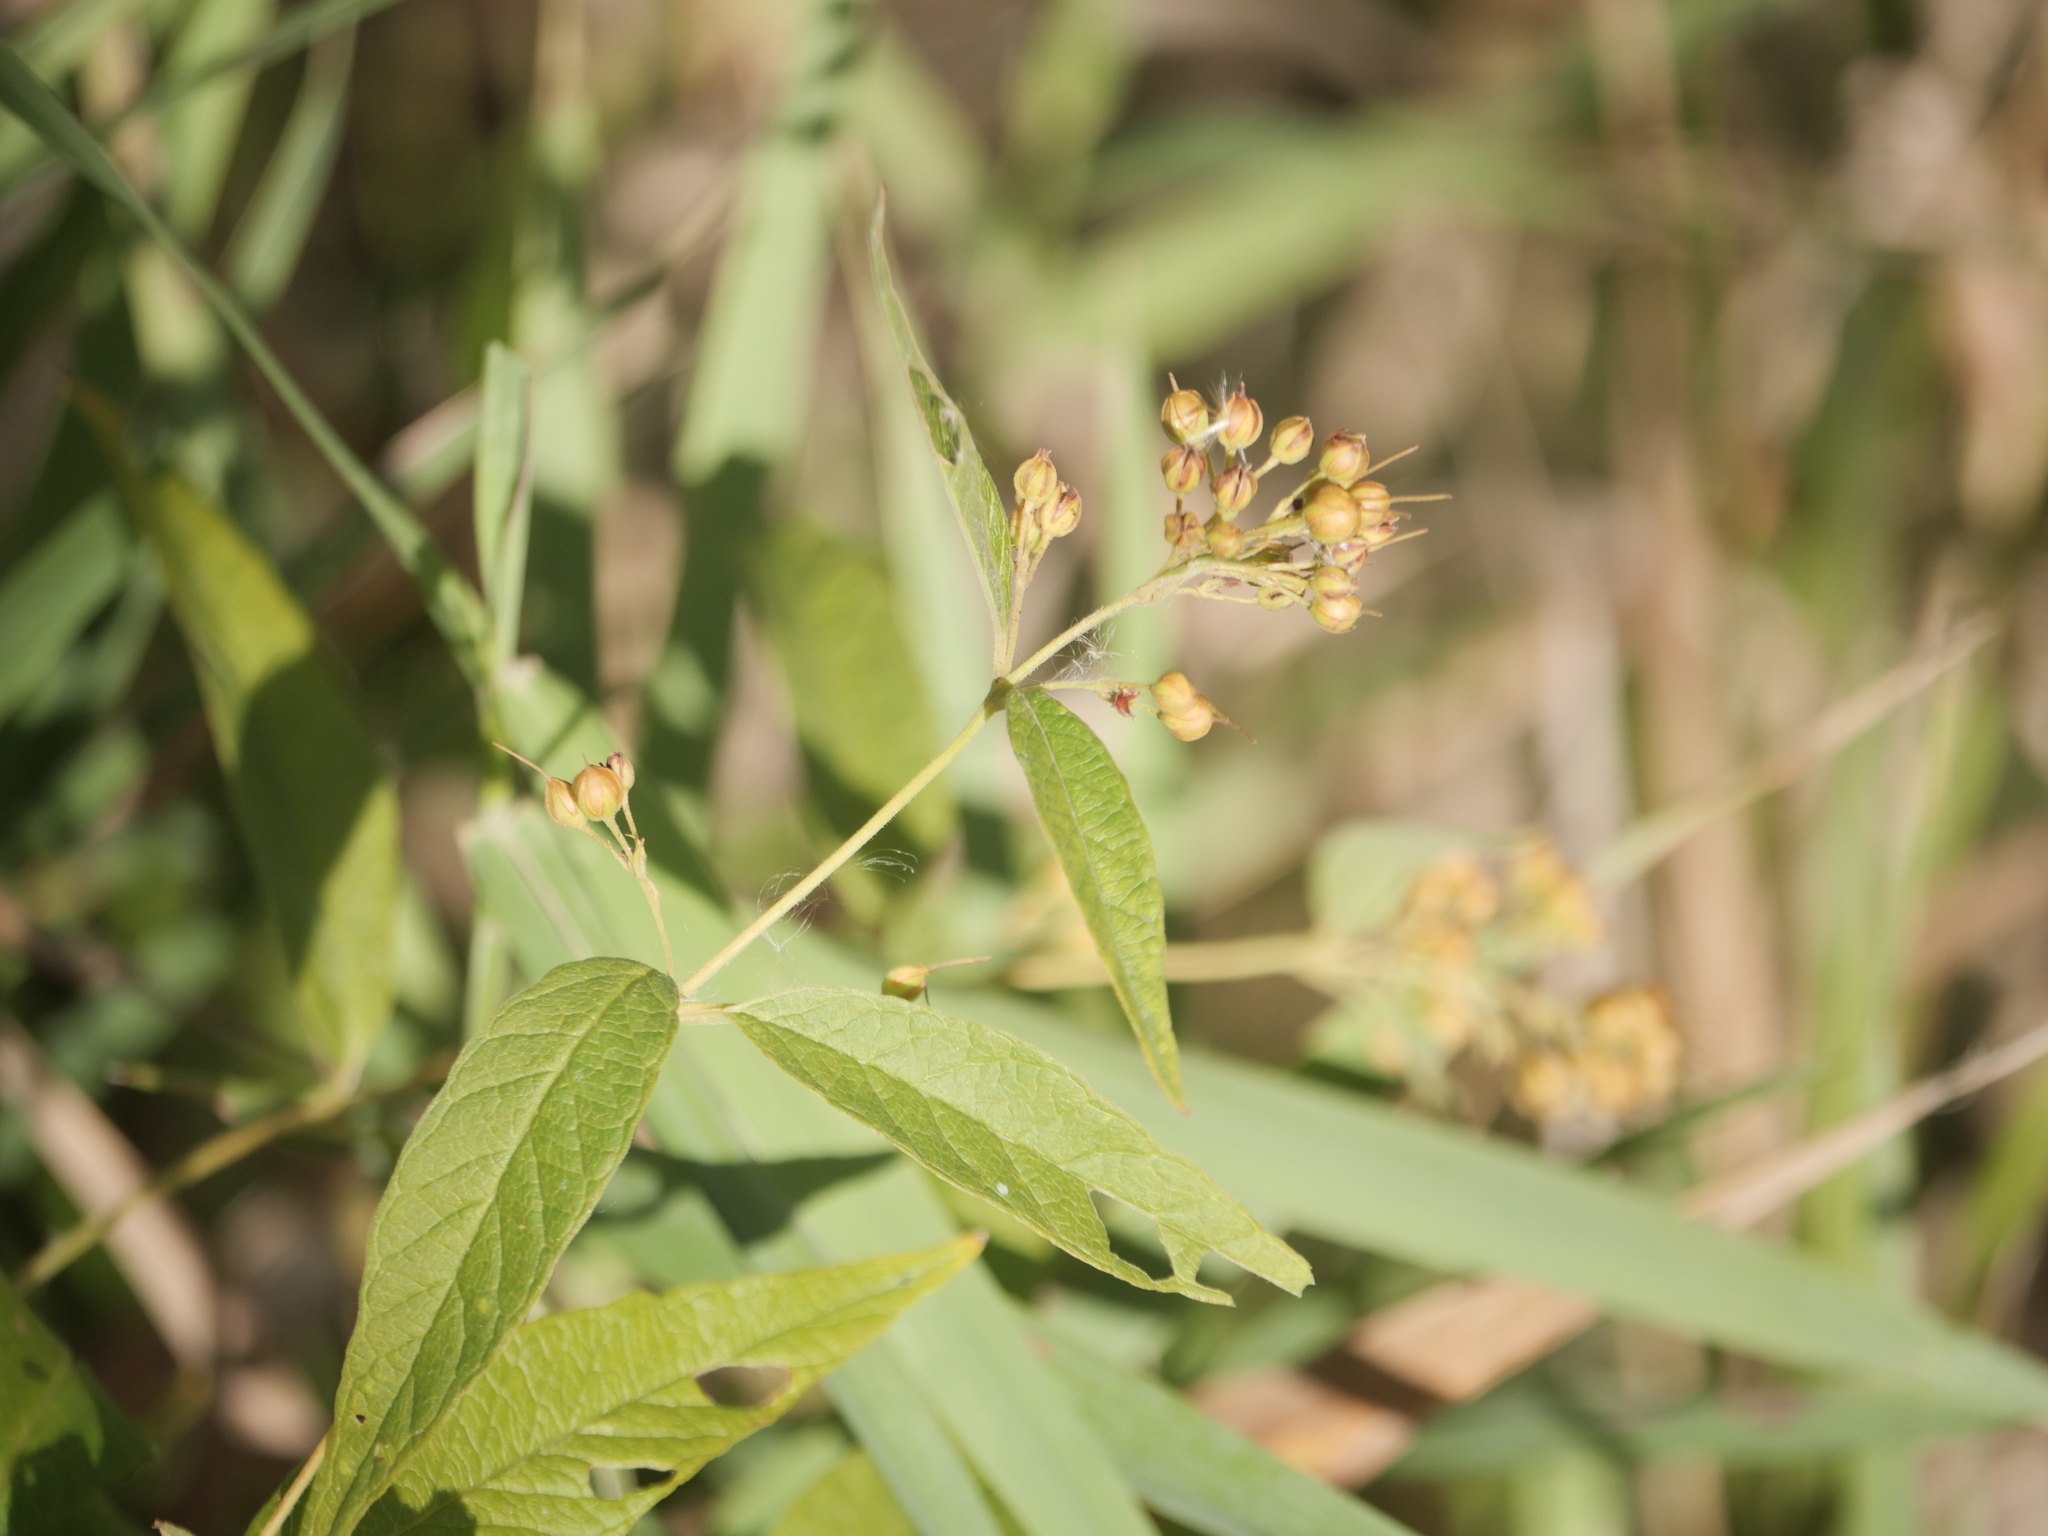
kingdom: Plantae
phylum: Tracheophyta
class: Magnoliopsida
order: Ericales
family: Primulaceae
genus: Lysimachia
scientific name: Lysimachia vulgaris
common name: Yellow loosestrife
